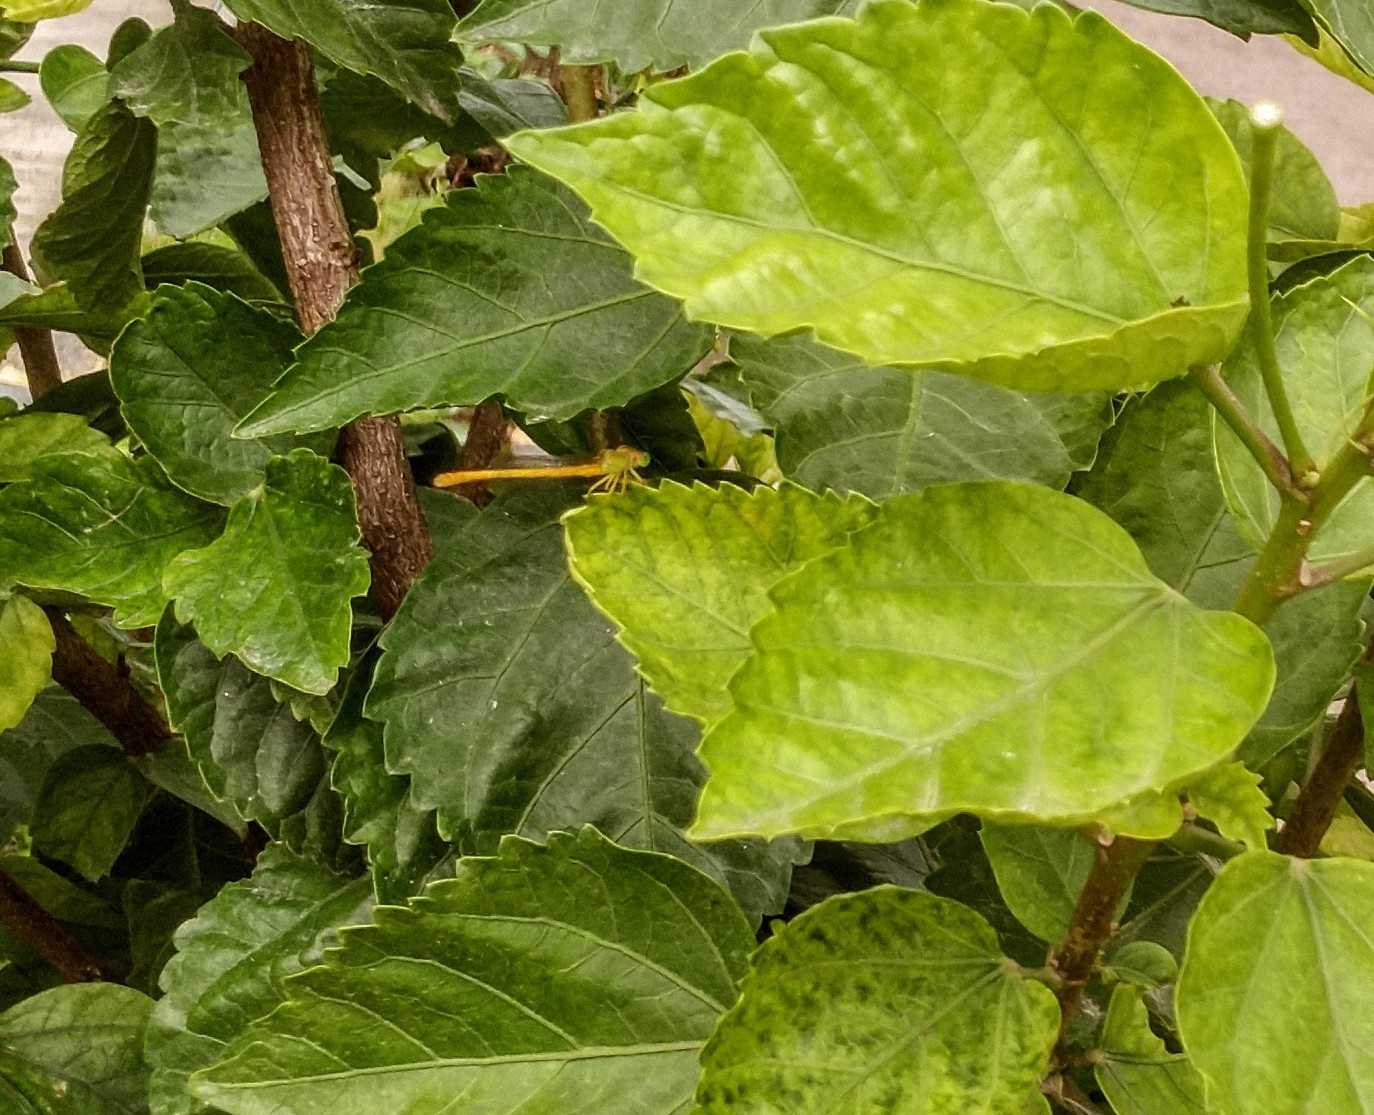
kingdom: Animalia
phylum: Arthropoda
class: Insecta
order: Odonata
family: Coenagrionidae
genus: Ceriagrion
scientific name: Ceriagrion coromandelianum
